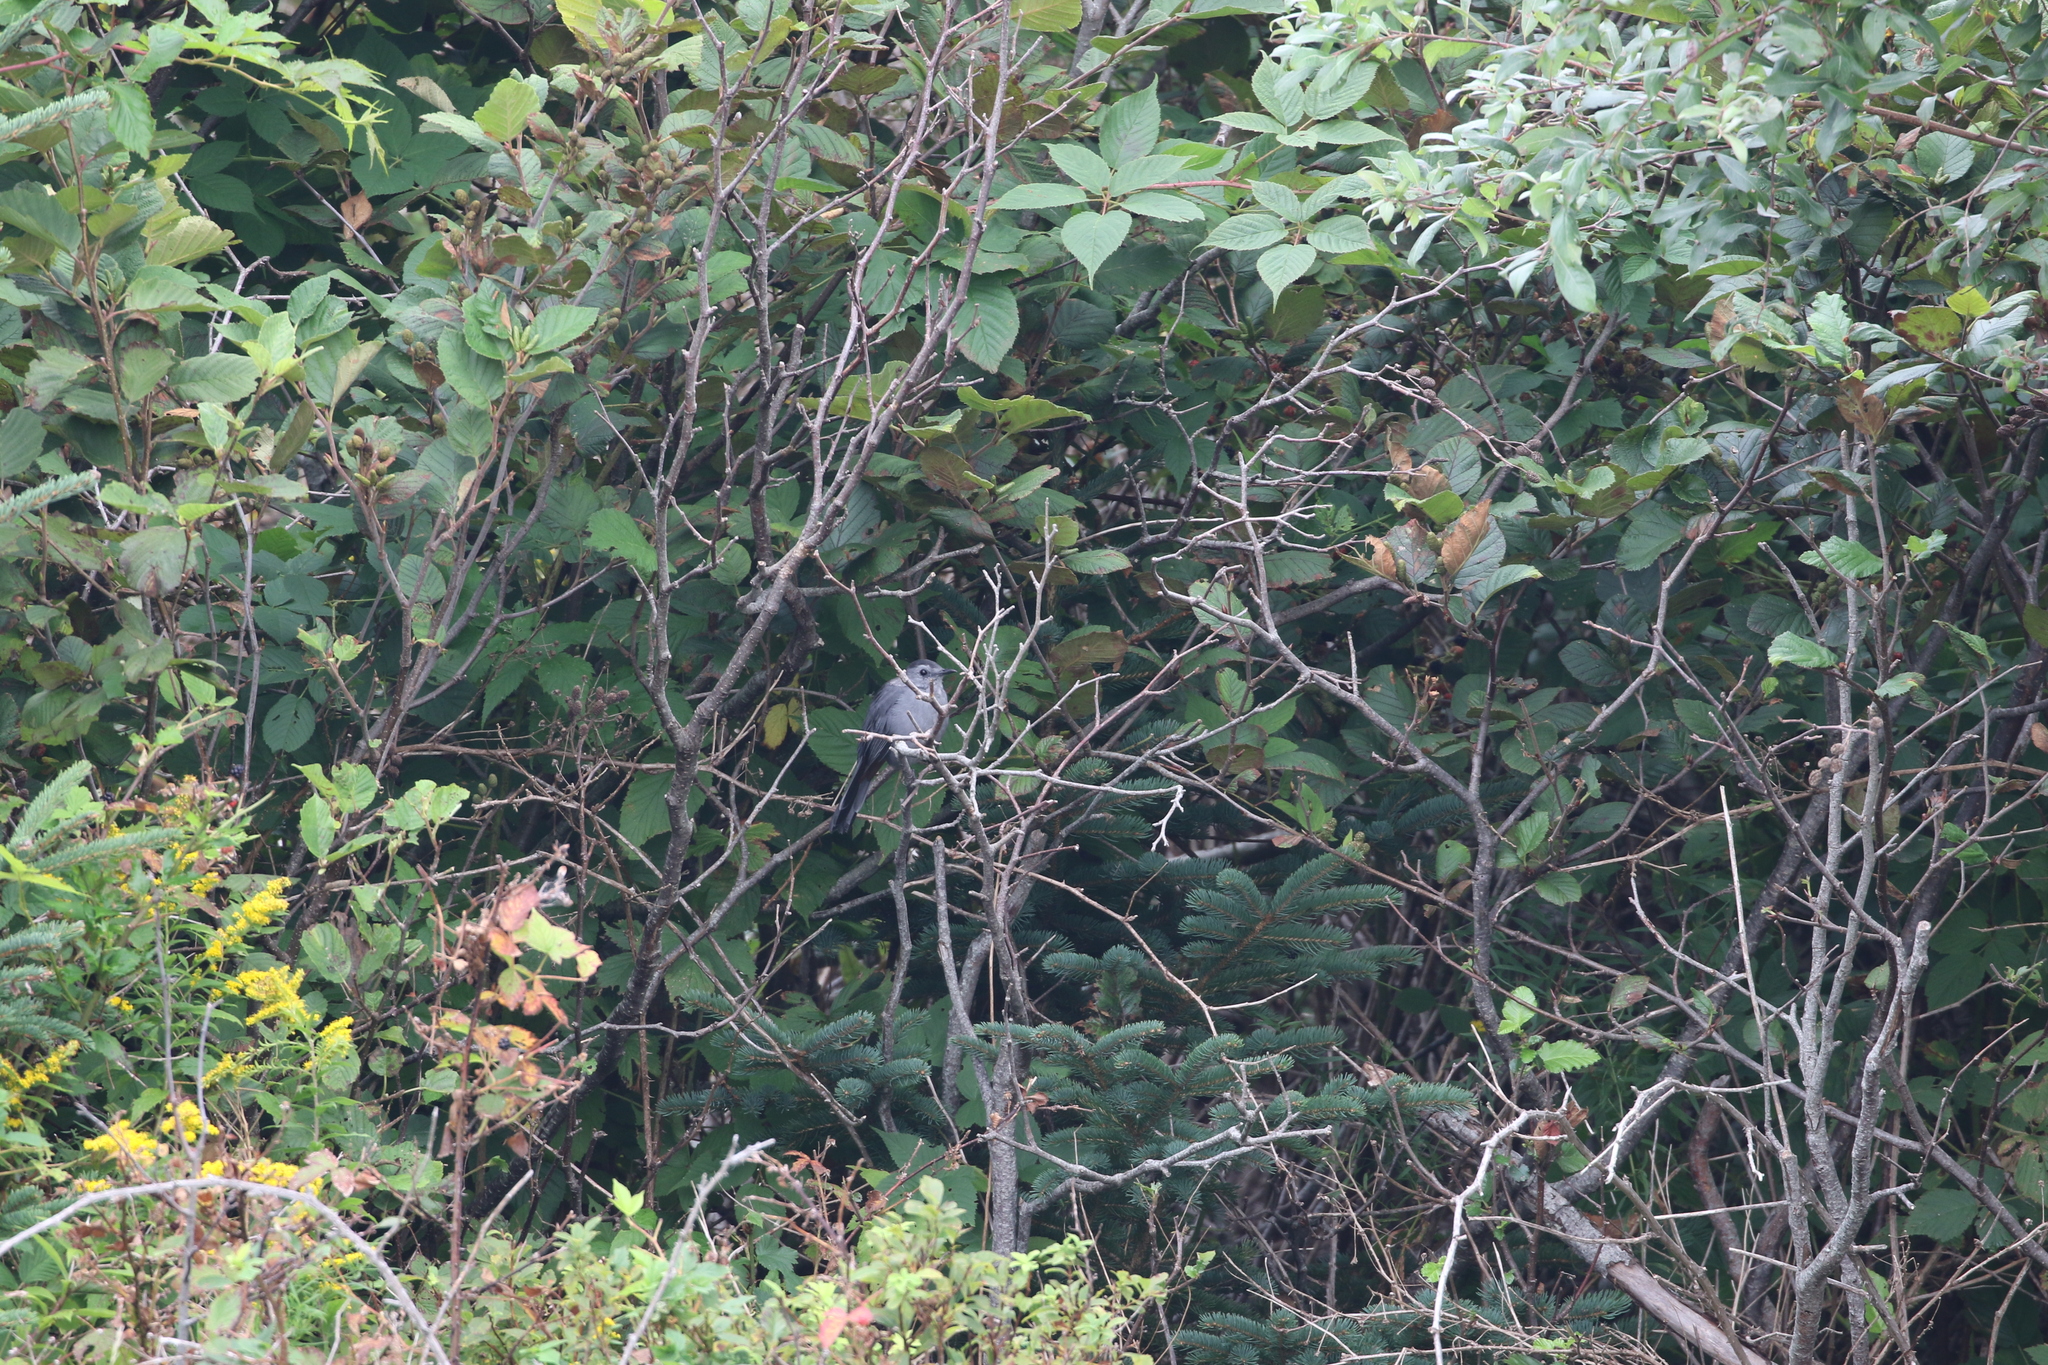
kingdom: Animalia
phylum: Chordata
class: Aves
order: Passeriformes
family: Mimidae
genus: Dumetella
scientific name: Dumetella carolinensis
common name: Gray catbird
